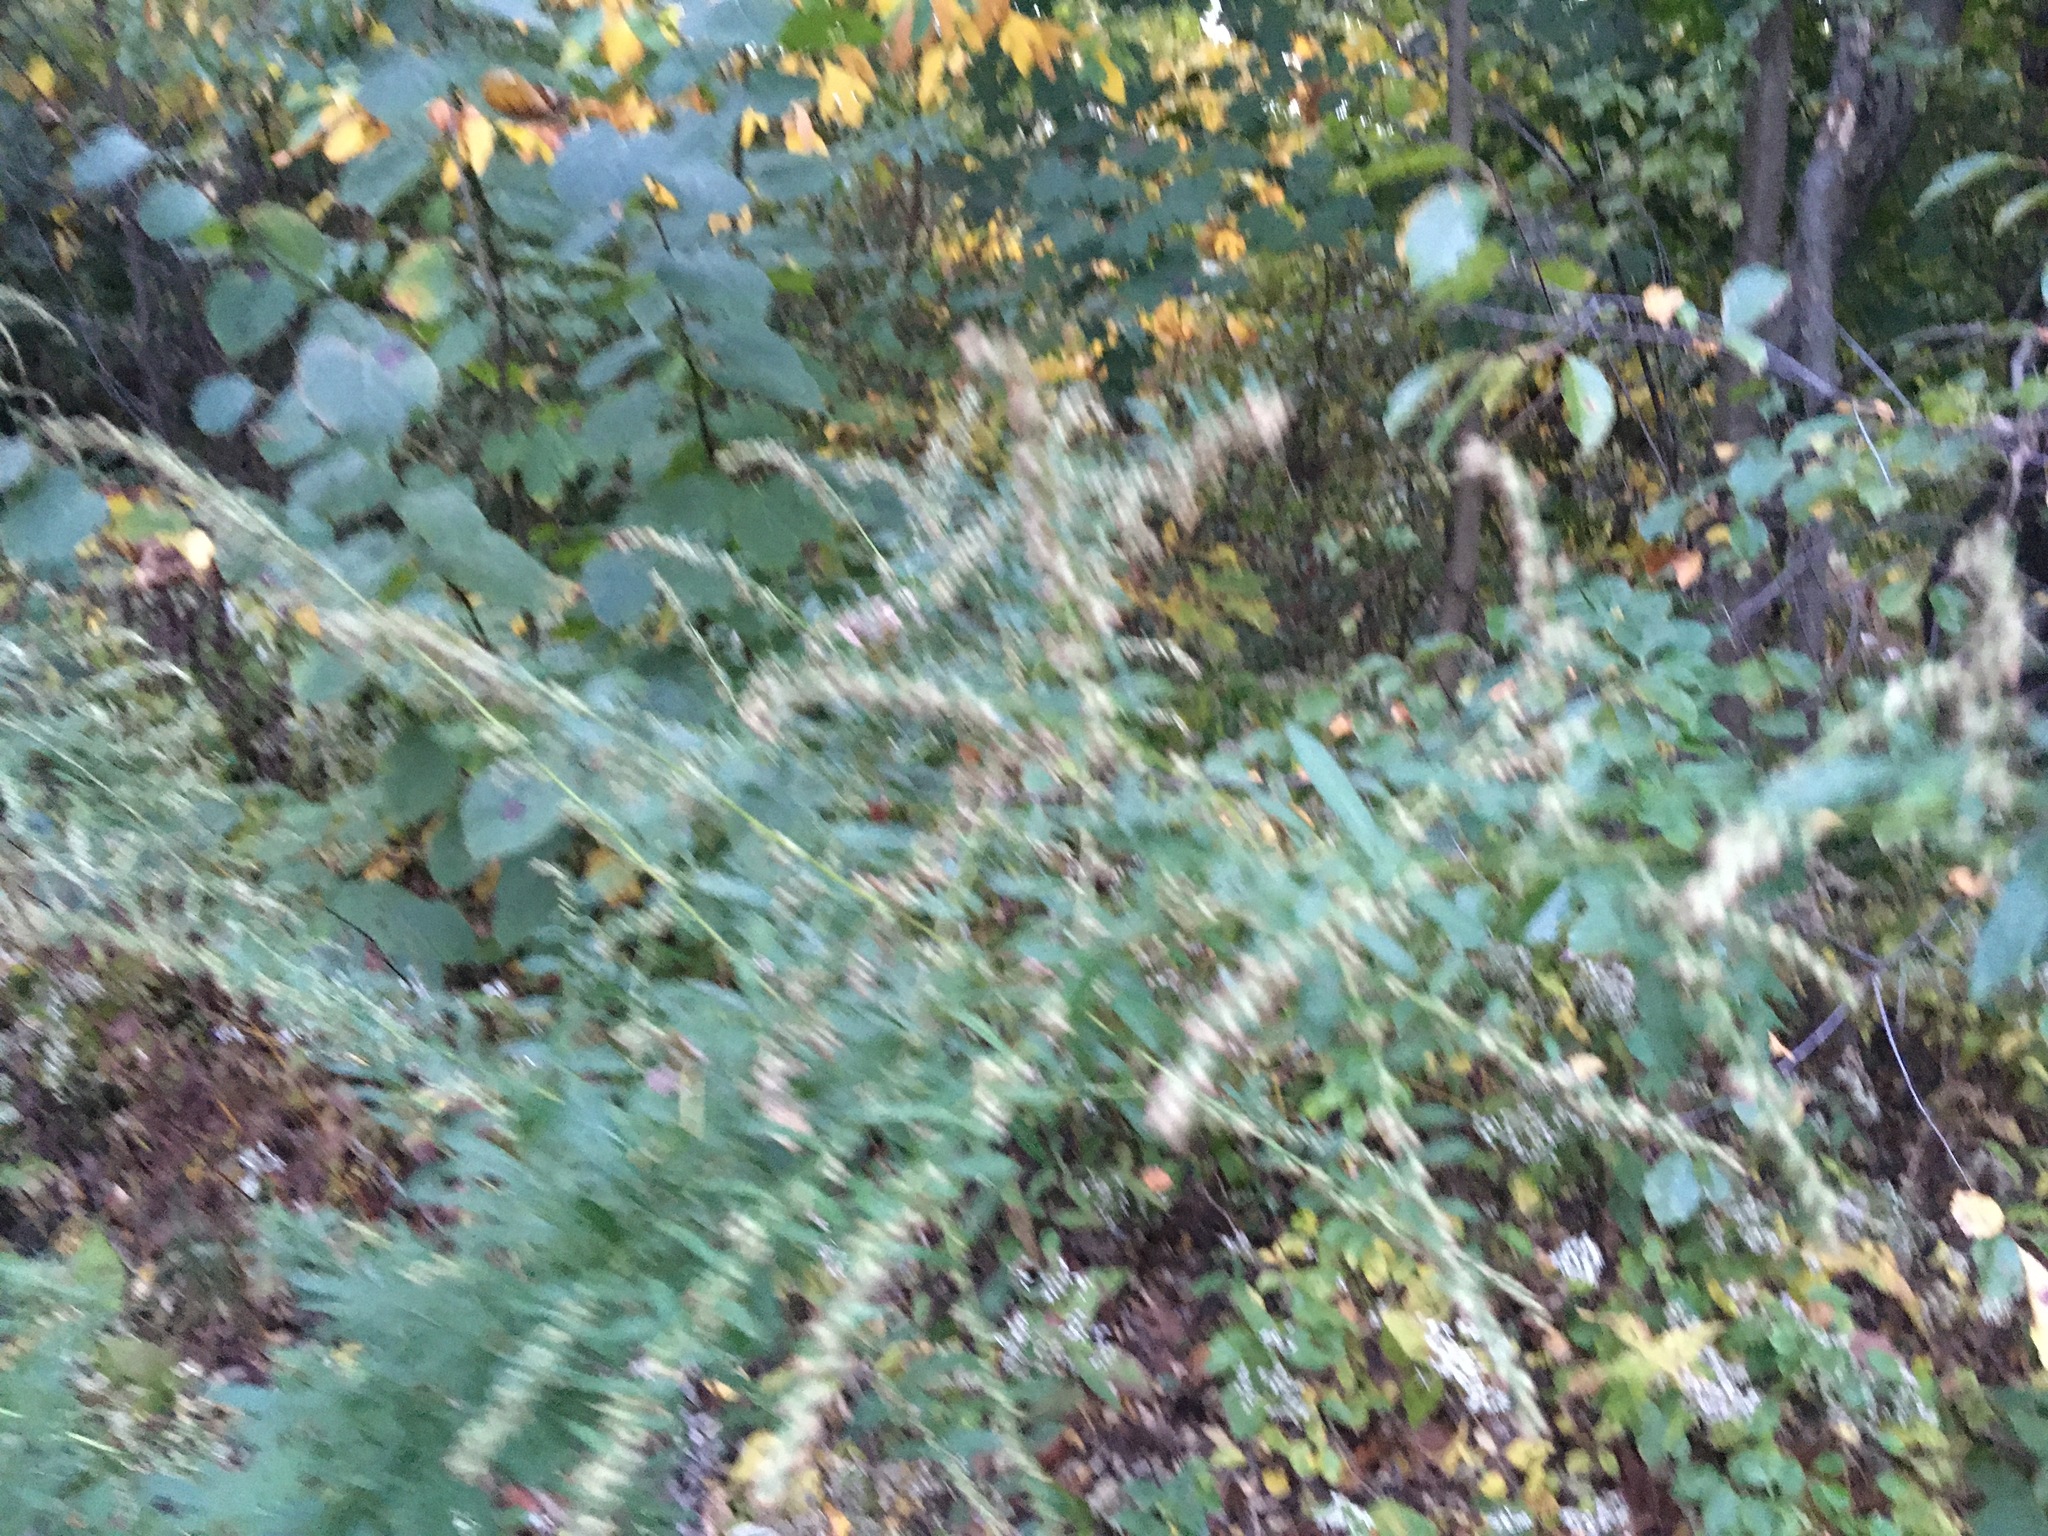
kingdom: Plantae
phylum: Tracheophyta
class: Magnoliopsida
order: Asterales
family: Asteraceae
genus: Artemisia
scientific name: Artemisia vulgaris
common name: Mugwort
